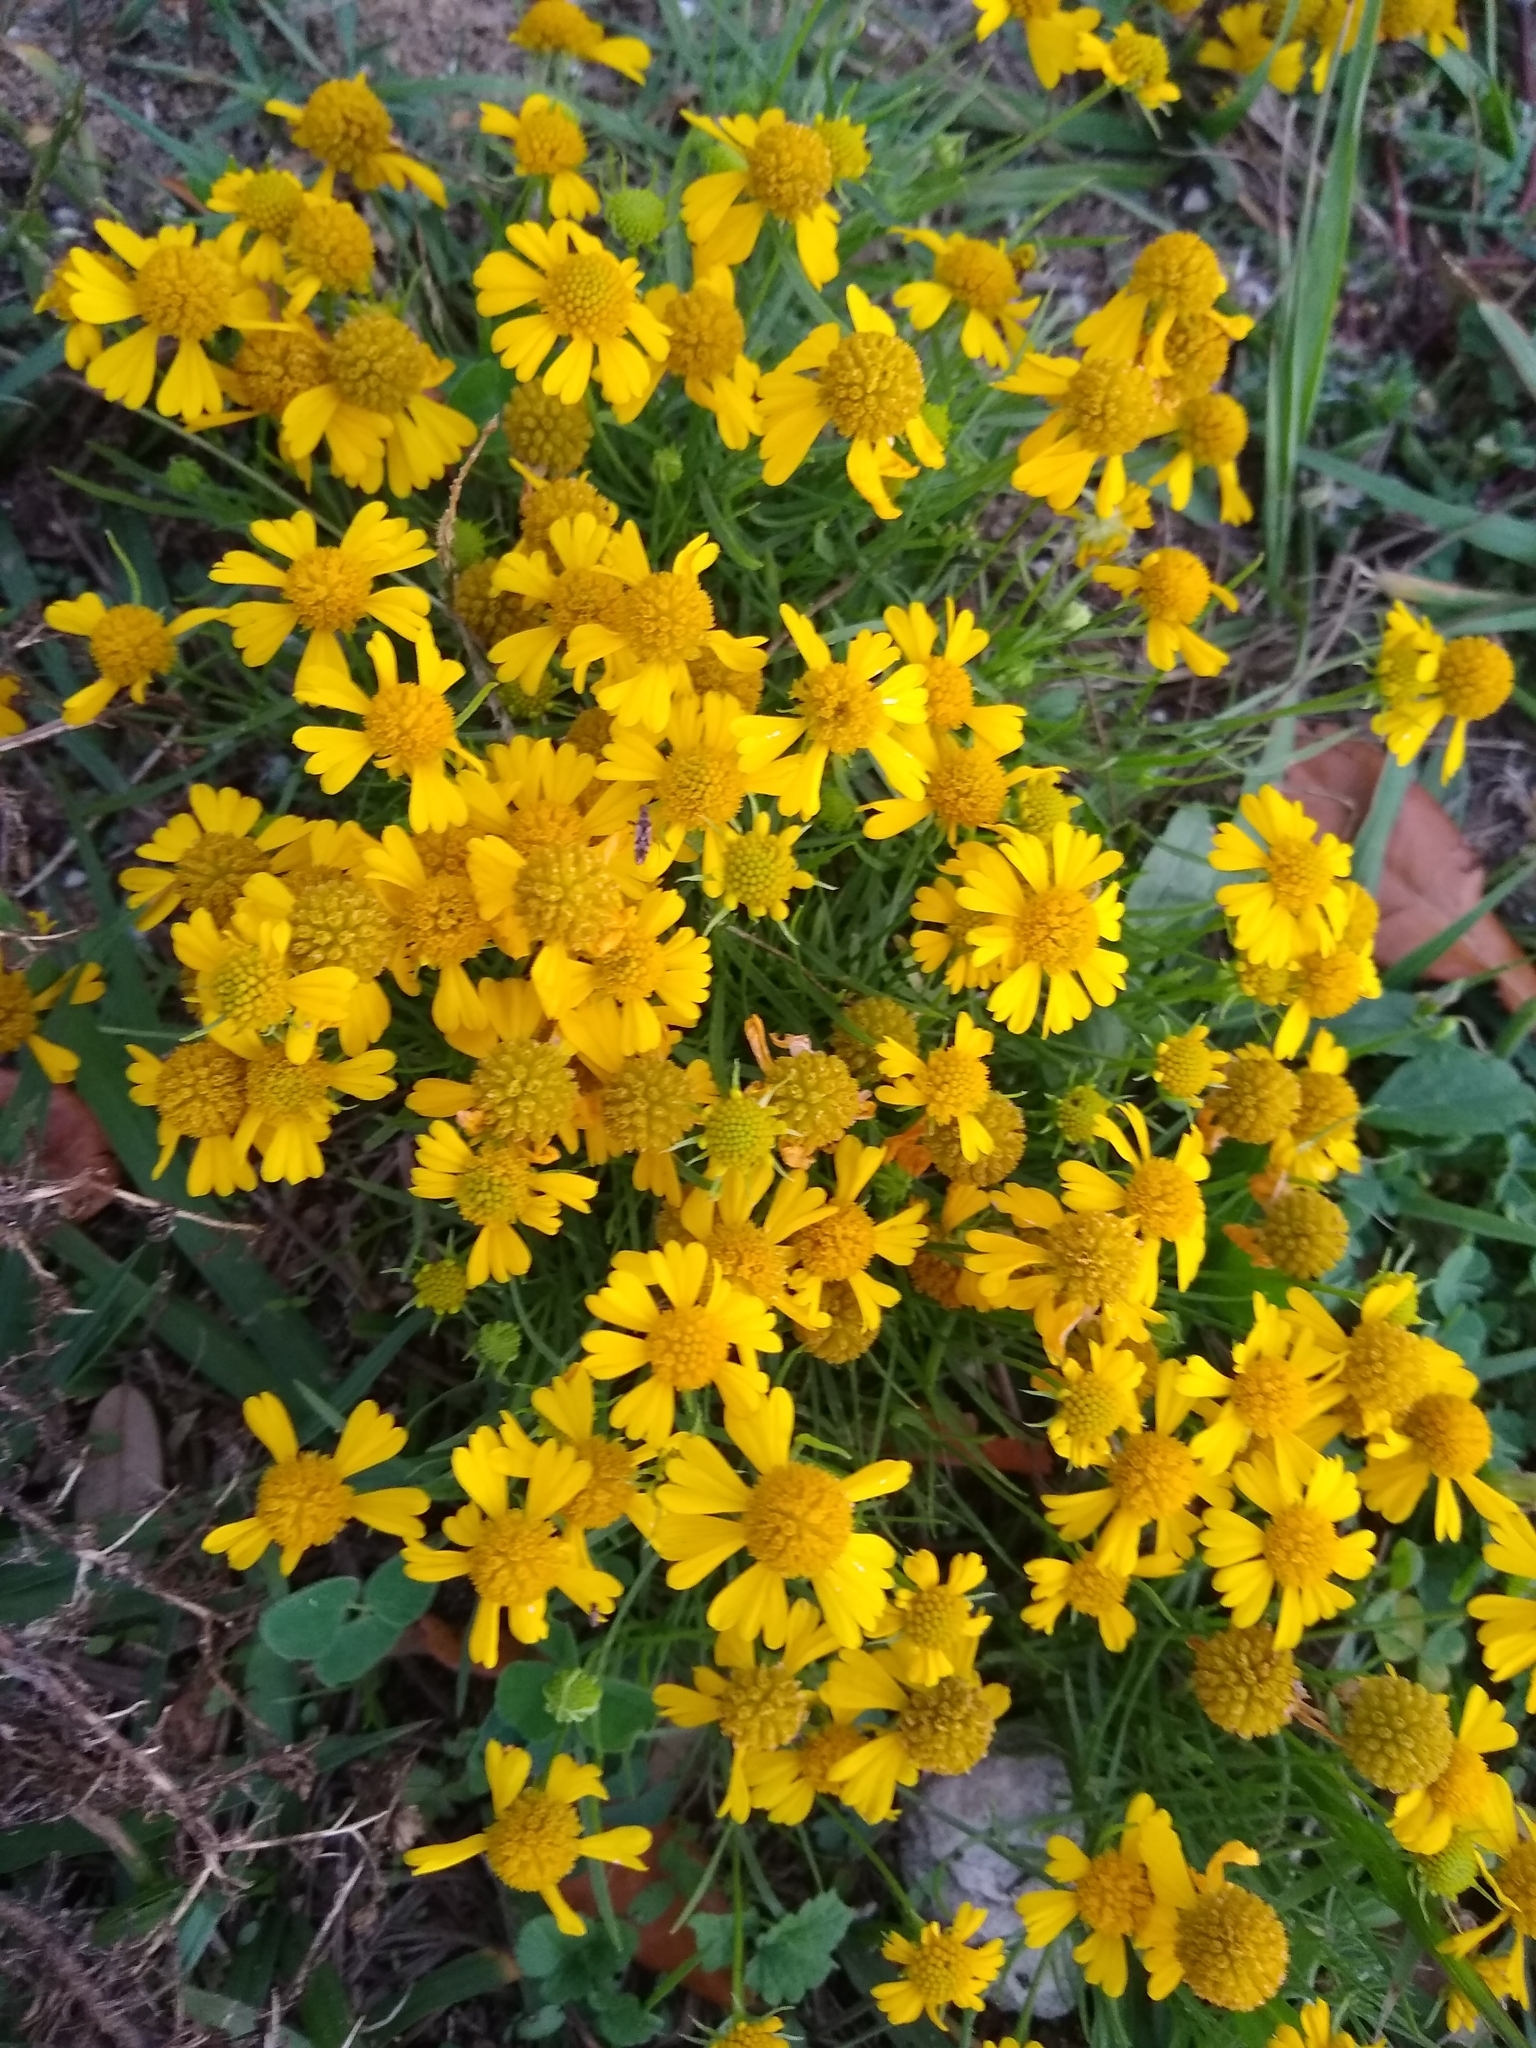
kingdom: Plantae
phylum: Tracheophyta
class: Magnoliopsida
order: Asterales
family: Asteraceae
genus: Helenium
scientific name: Helenium amarum
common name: Bitter sneezeweed
